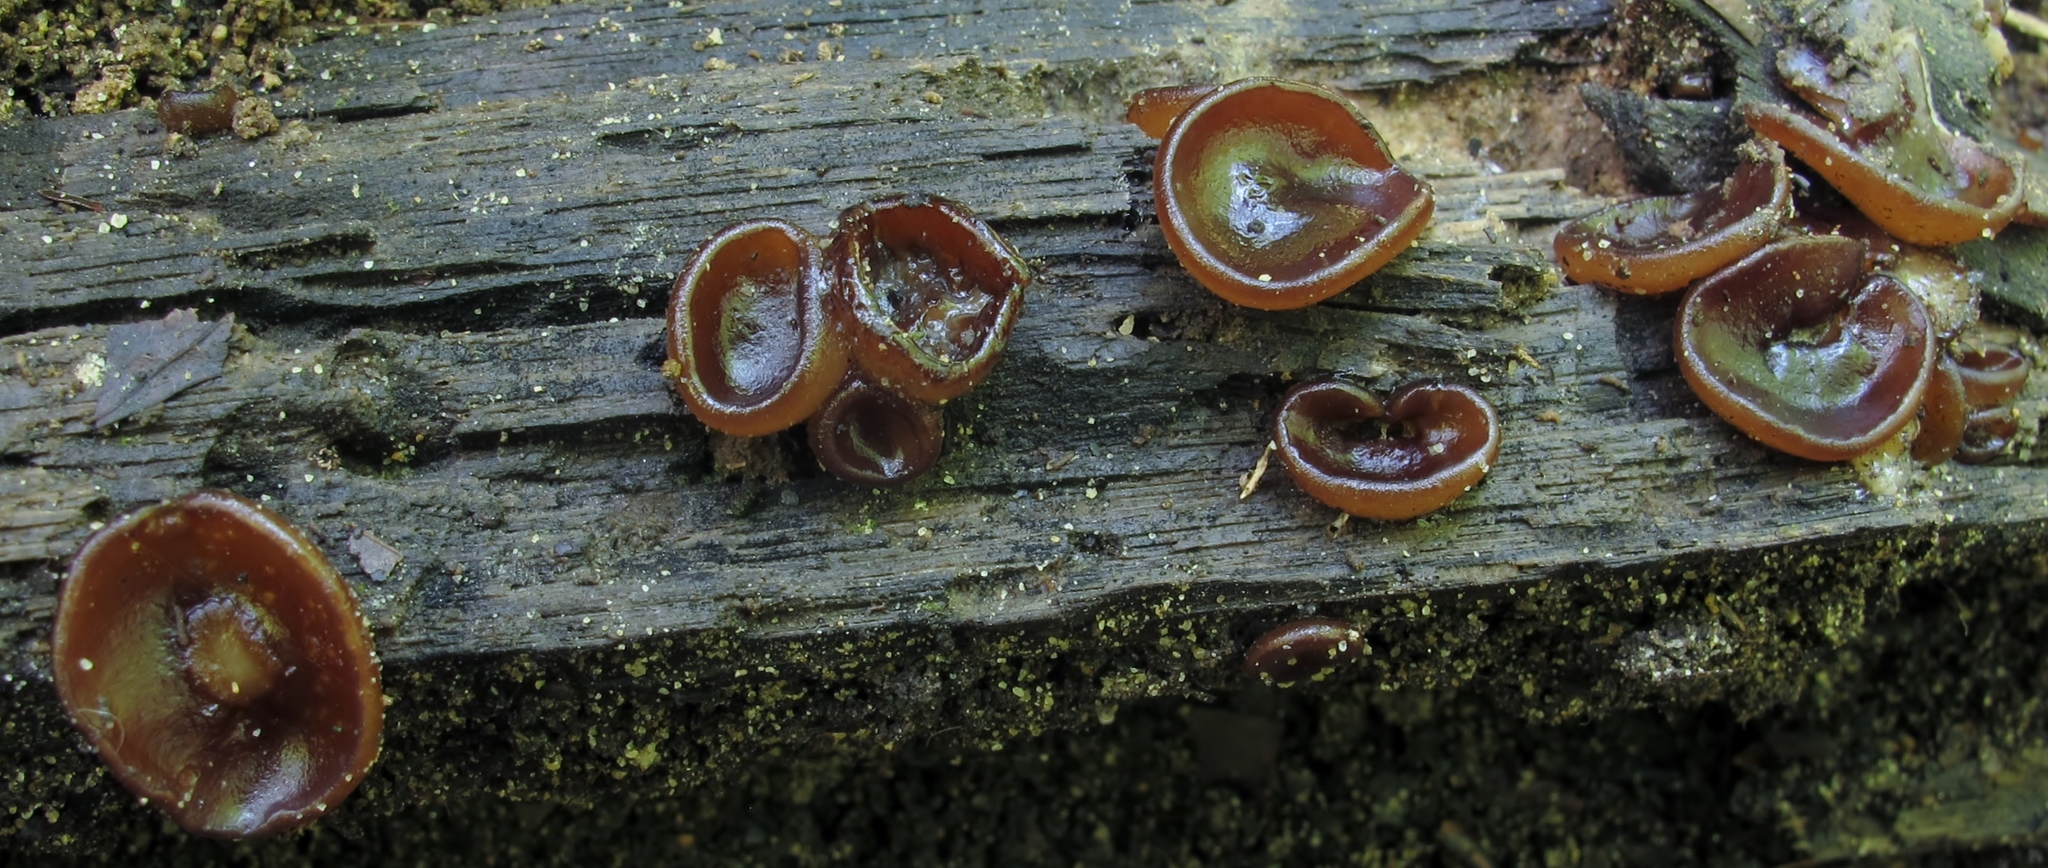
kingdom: Fungi
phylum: Ascomycota
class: Pezizomycetes
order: Pezizales
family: Pezizaceae
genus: Pachyella
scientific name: Pachyella clypeata
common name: Copper penny fungus
